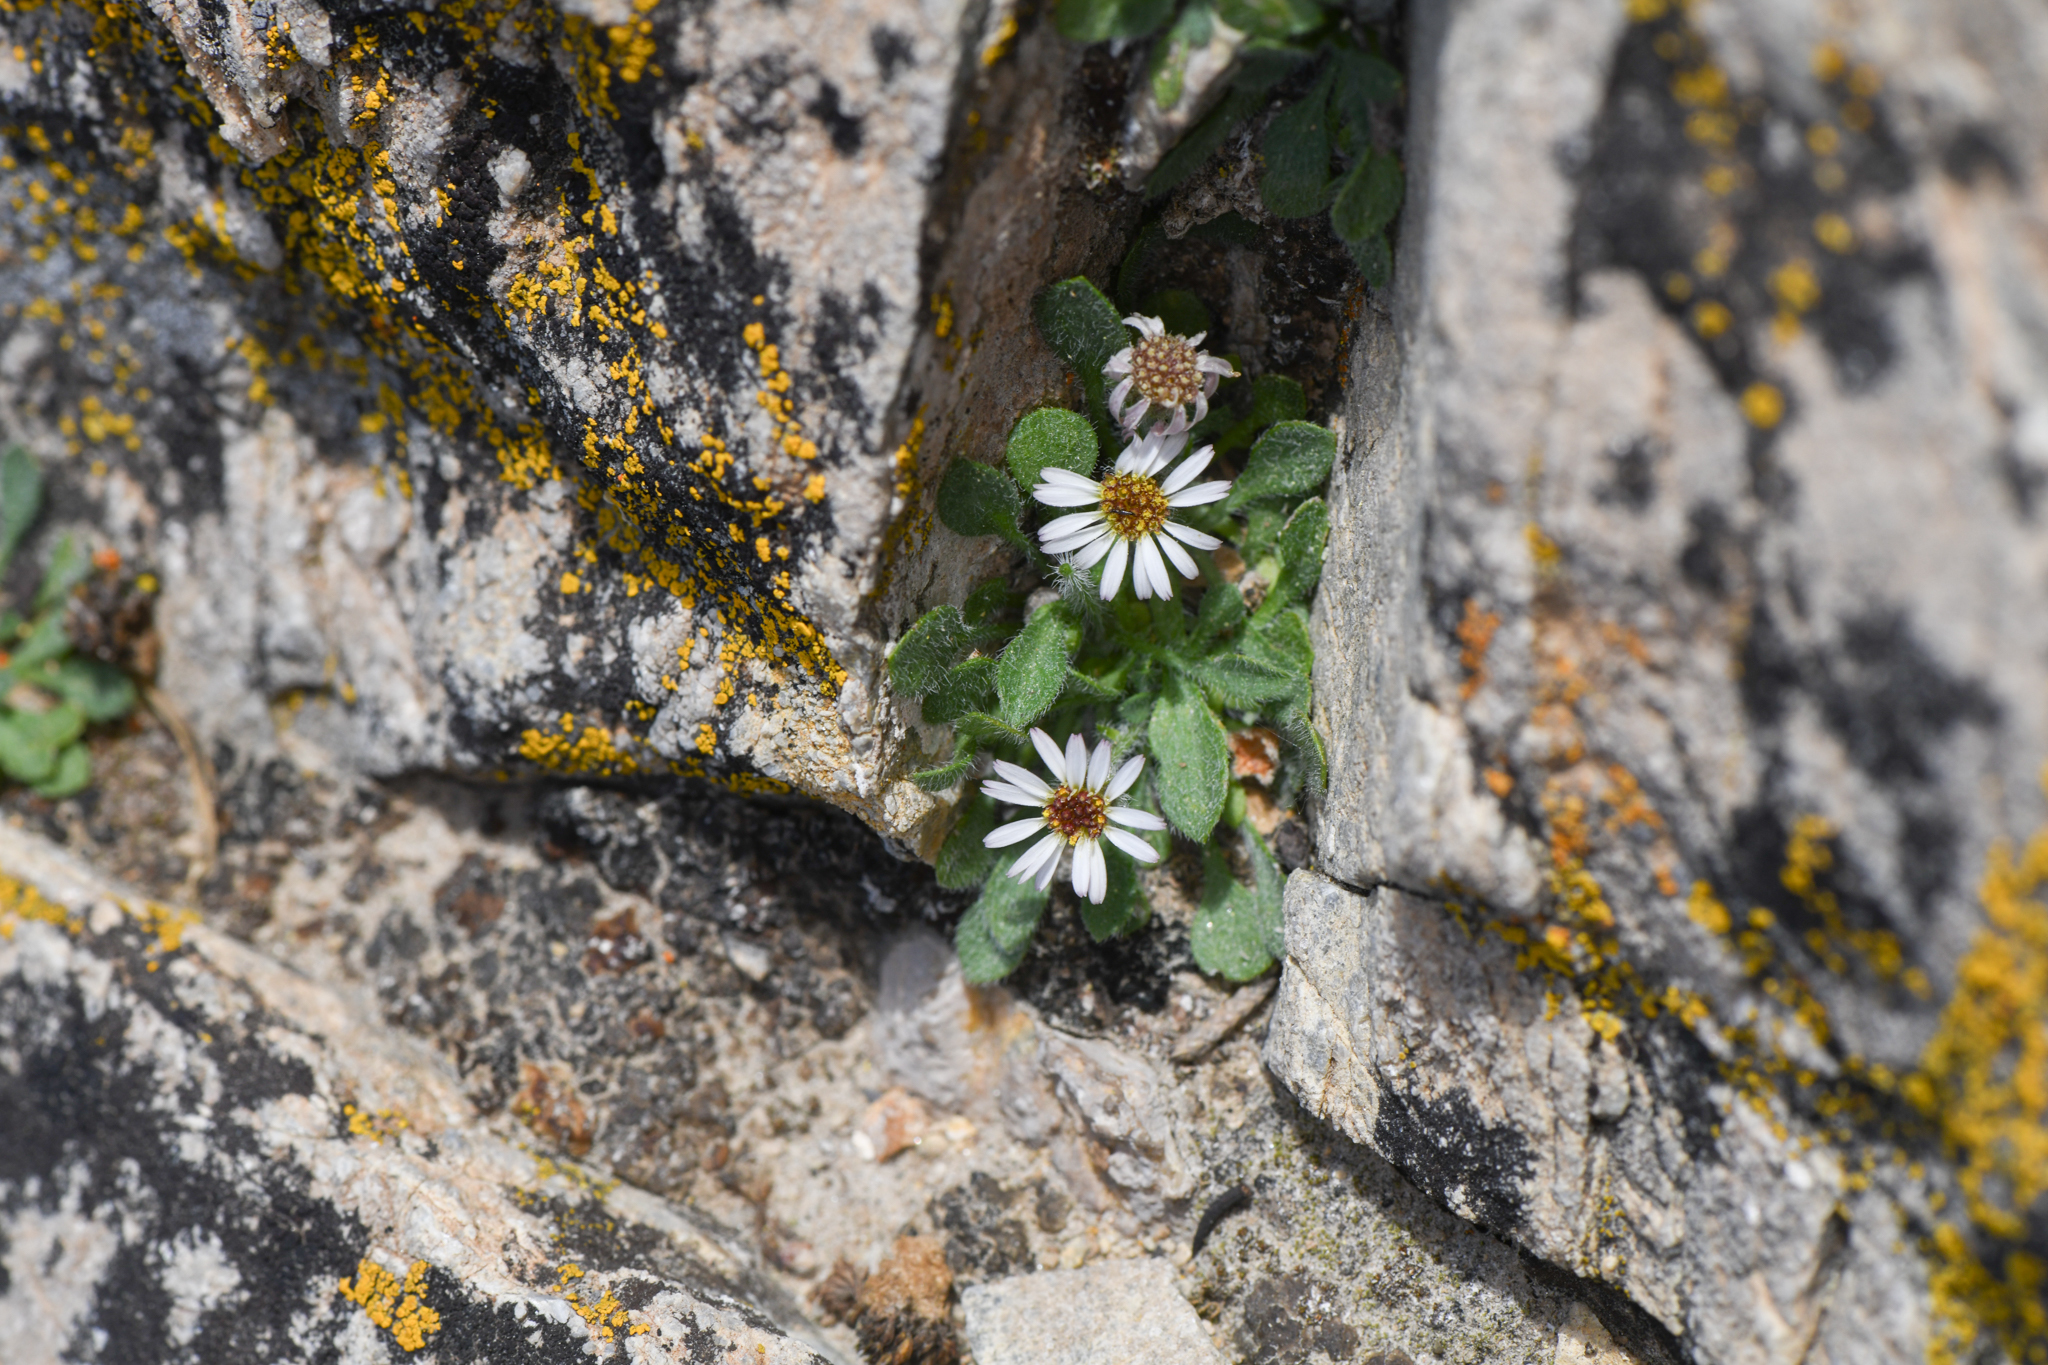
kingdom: Plantae
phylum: Tracheophyta
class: Magnoliopsida
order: Asterales
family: Asteraceae
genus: Erigeron
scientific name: Erigeron uncialis
